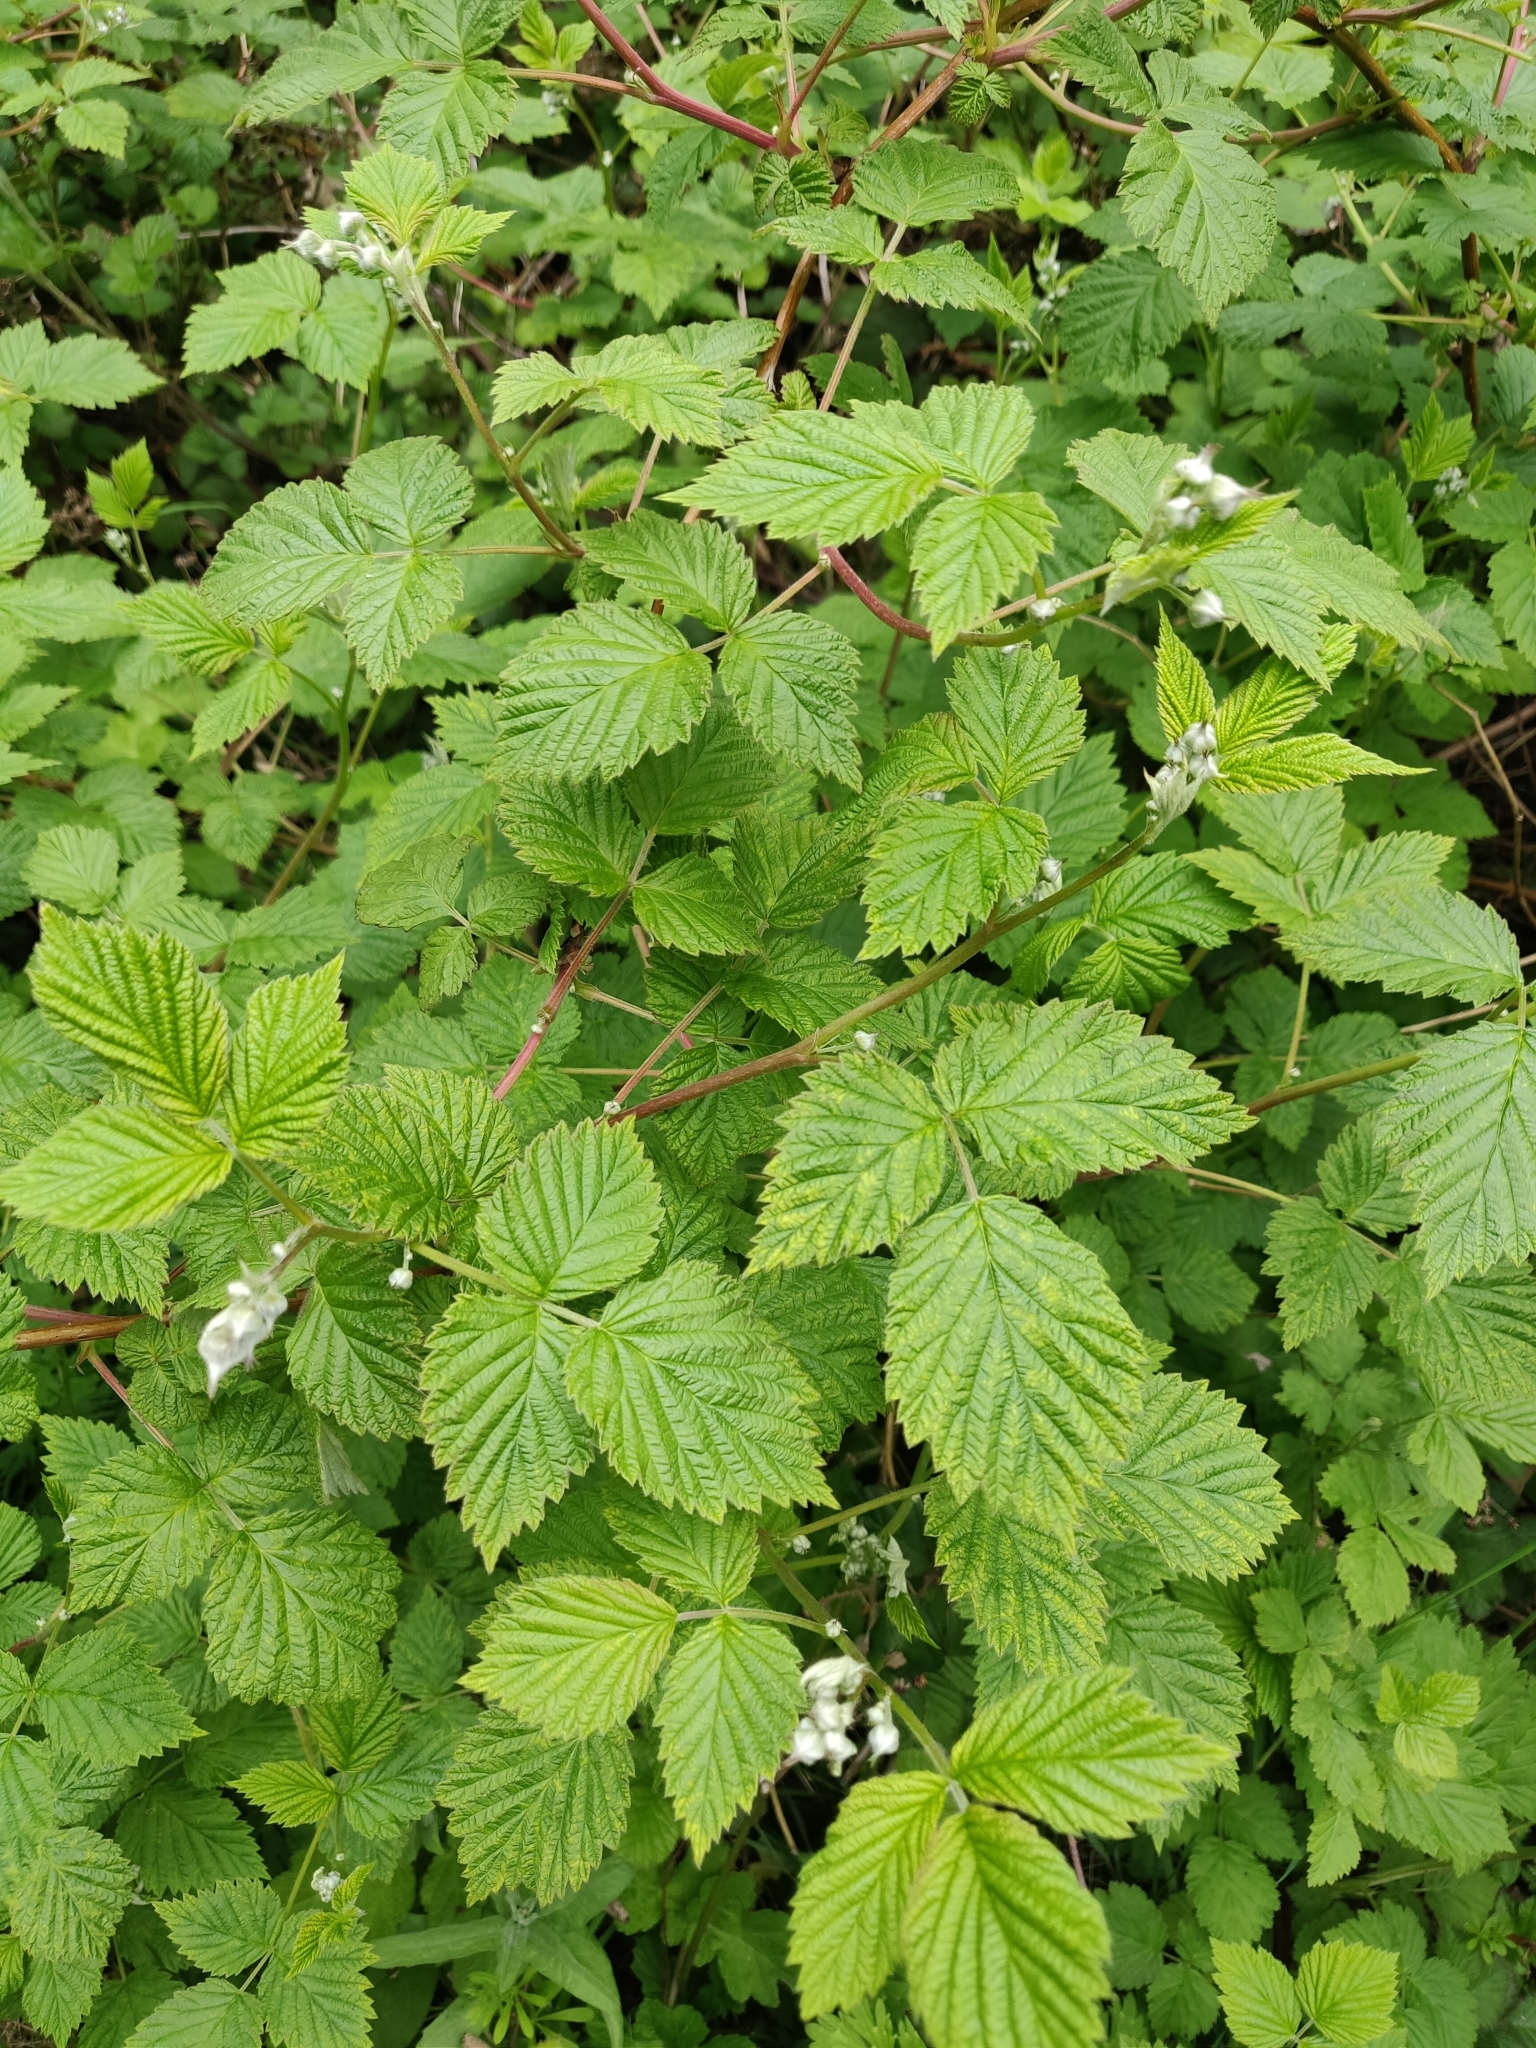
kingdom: Plantae
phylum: Tracheophyta
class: Magnoliopsida
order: Rosales
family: Rosaceae
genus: Rubus
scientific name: Rubus idaeus
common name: Raspberry
